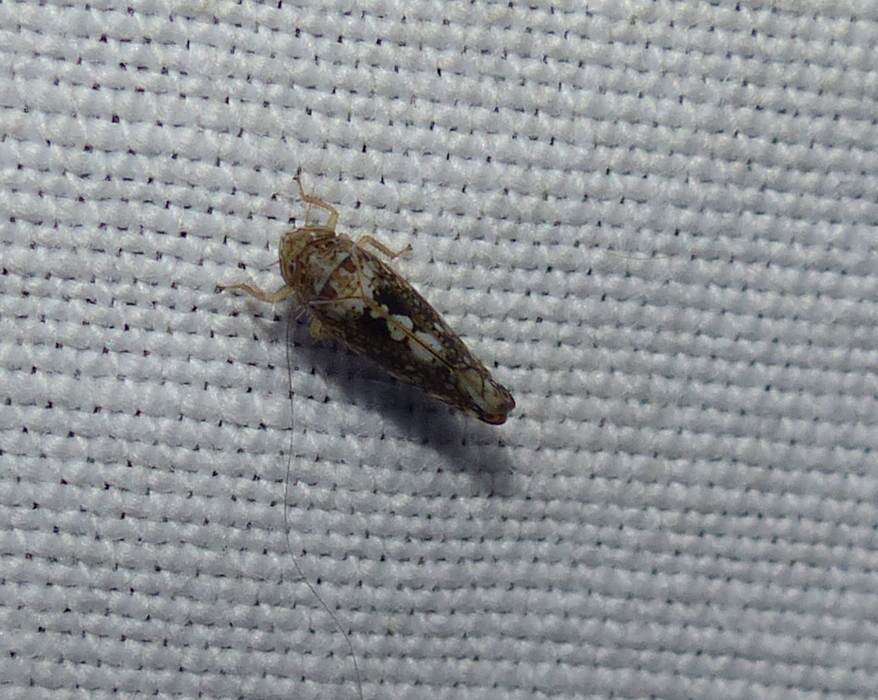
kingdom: Animalia
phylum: Arthropoda
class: Insecta
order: Hemiptera
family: Cicadellidae
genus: Prescottia
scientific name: Prescottia lobata
